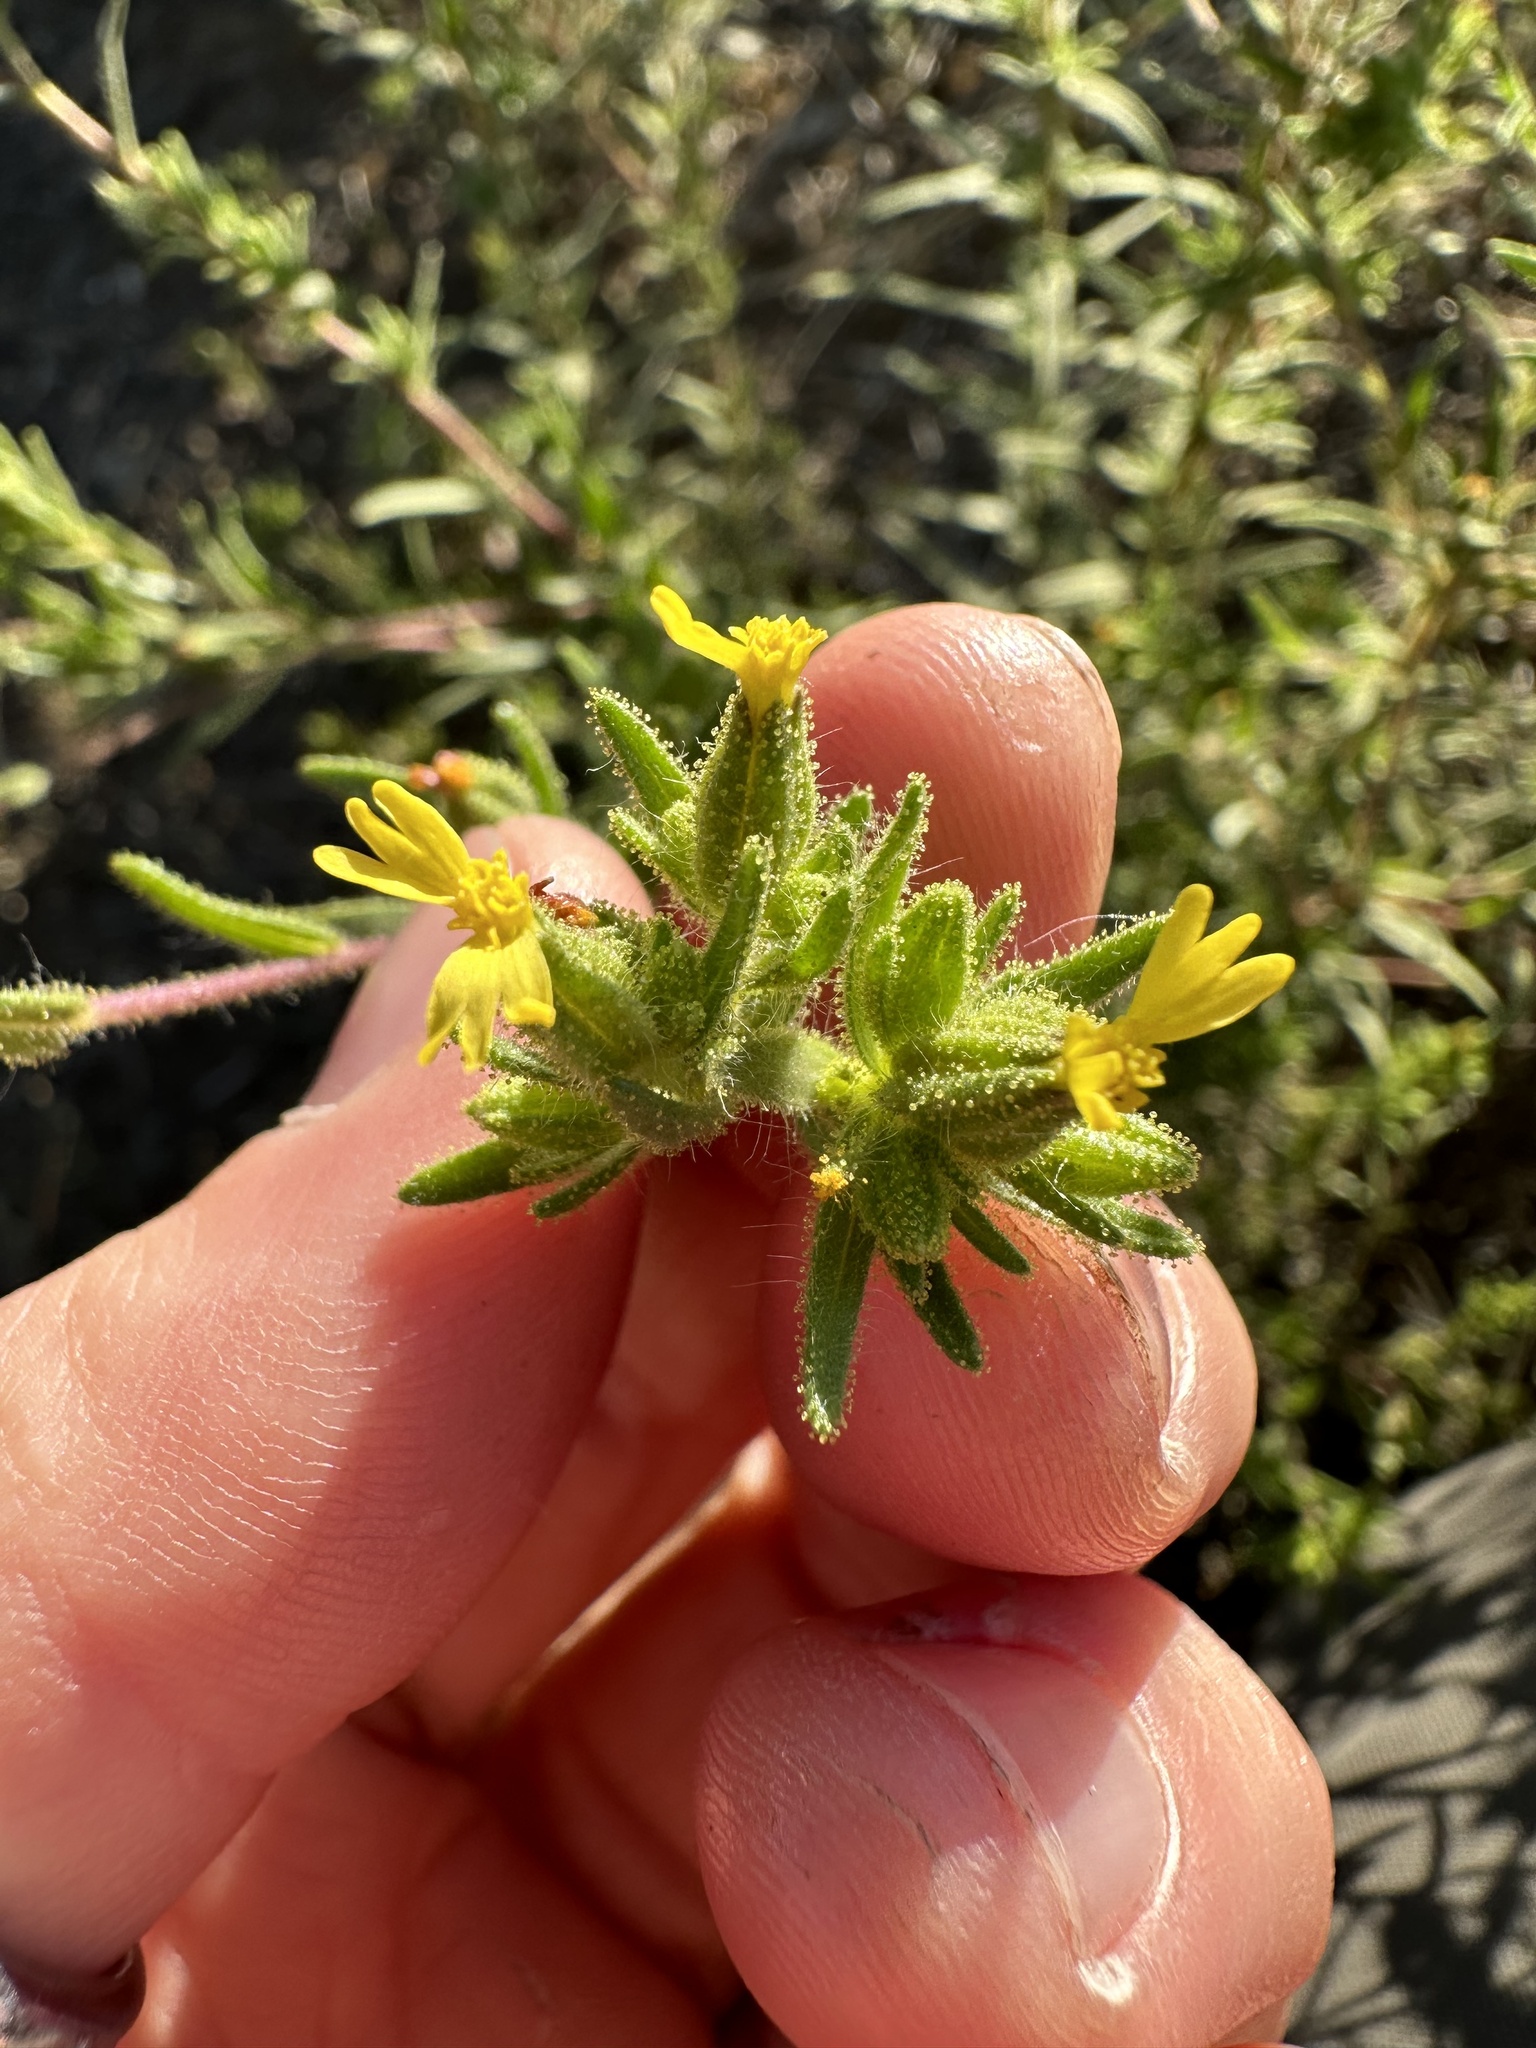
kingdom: Plantae
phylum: Tracheophyta
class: Magnoliopsida
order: Asterales
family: Asteraceae
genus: Madia
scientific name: Madia glomerata
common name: Mountain tarweed
